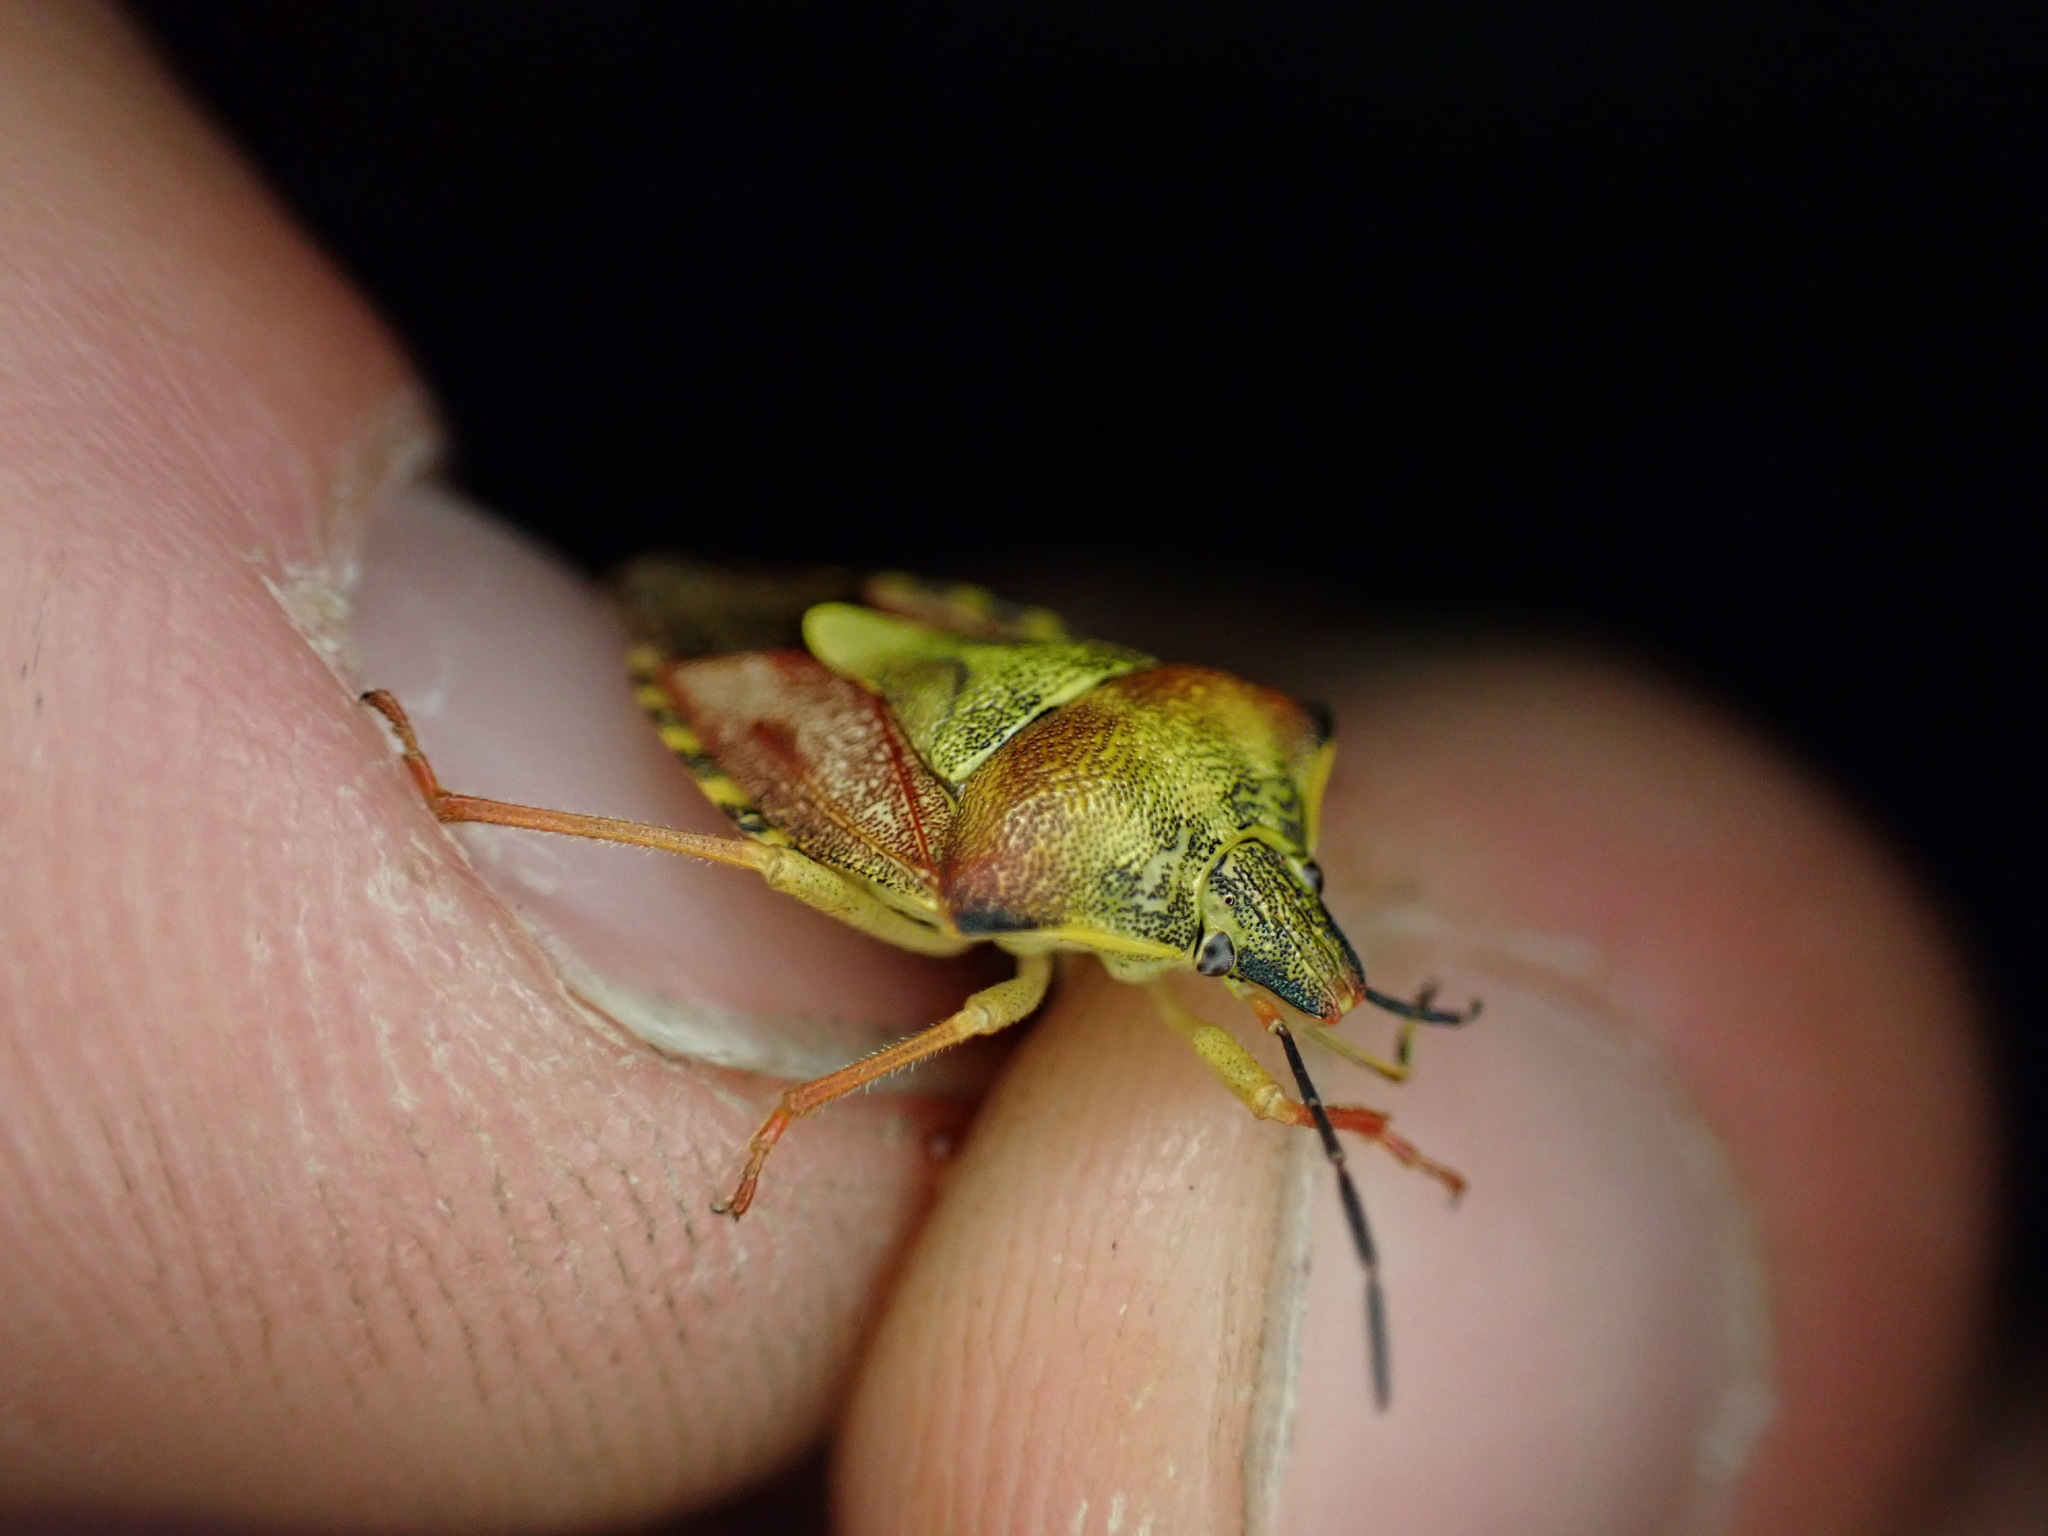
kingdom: Animalia
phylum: Arthropoda
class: Insecta
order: Hemiptera
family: Pentatomidae
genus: Carpocoris
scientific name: Carpocoris purpureipennis
